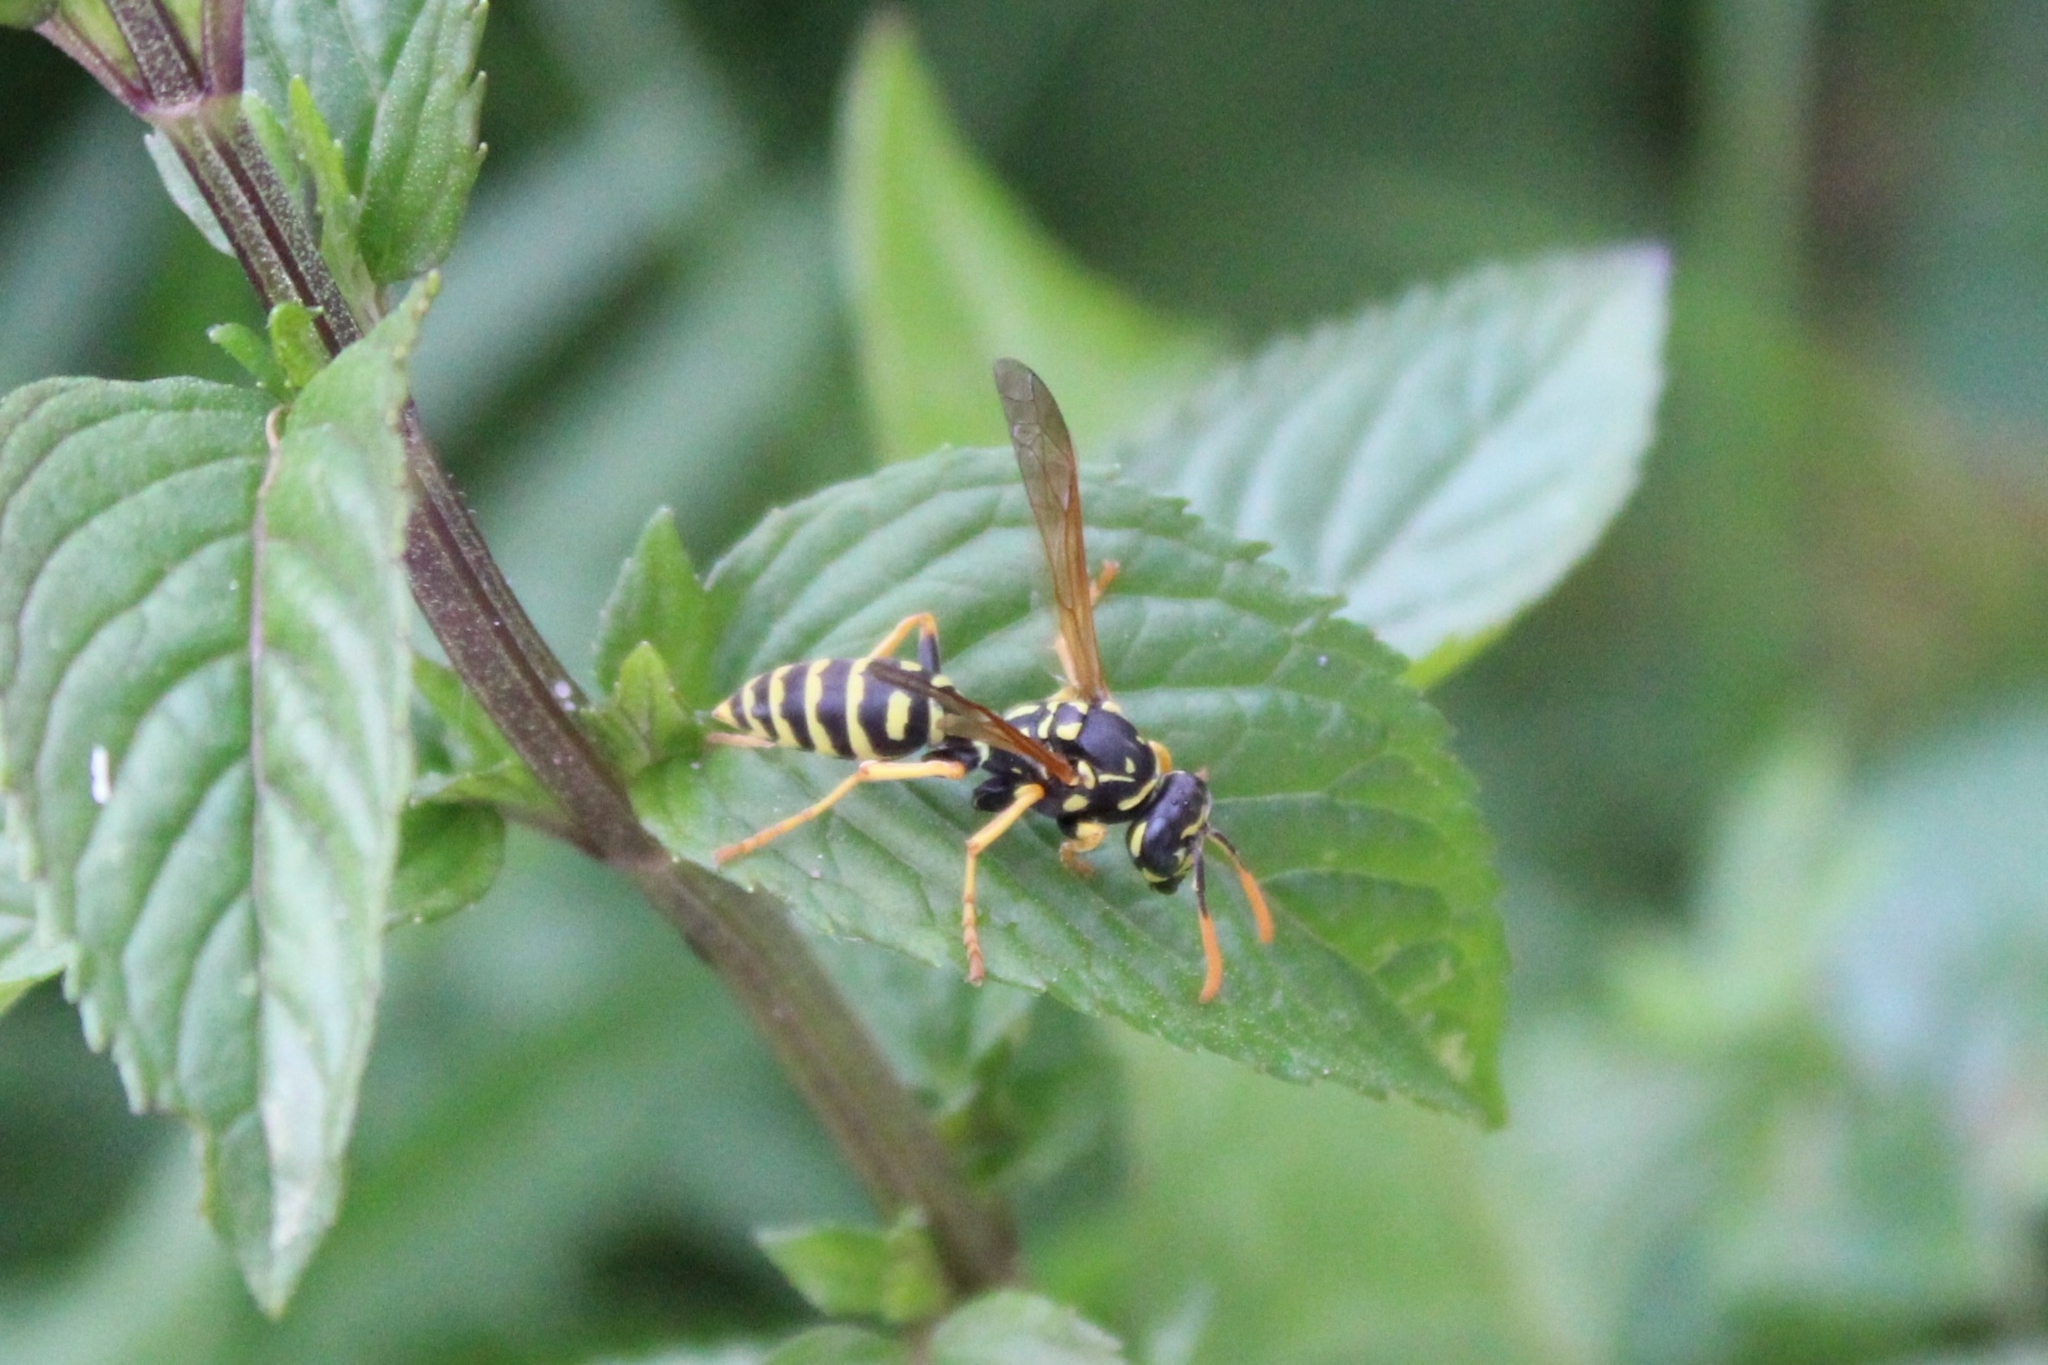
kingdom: Animalia
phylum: Arthropoda
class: Insecta
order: Hymenoptera
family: Eumenidae
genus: Polistes
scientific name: Polistes dominula
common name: Paper wasp
